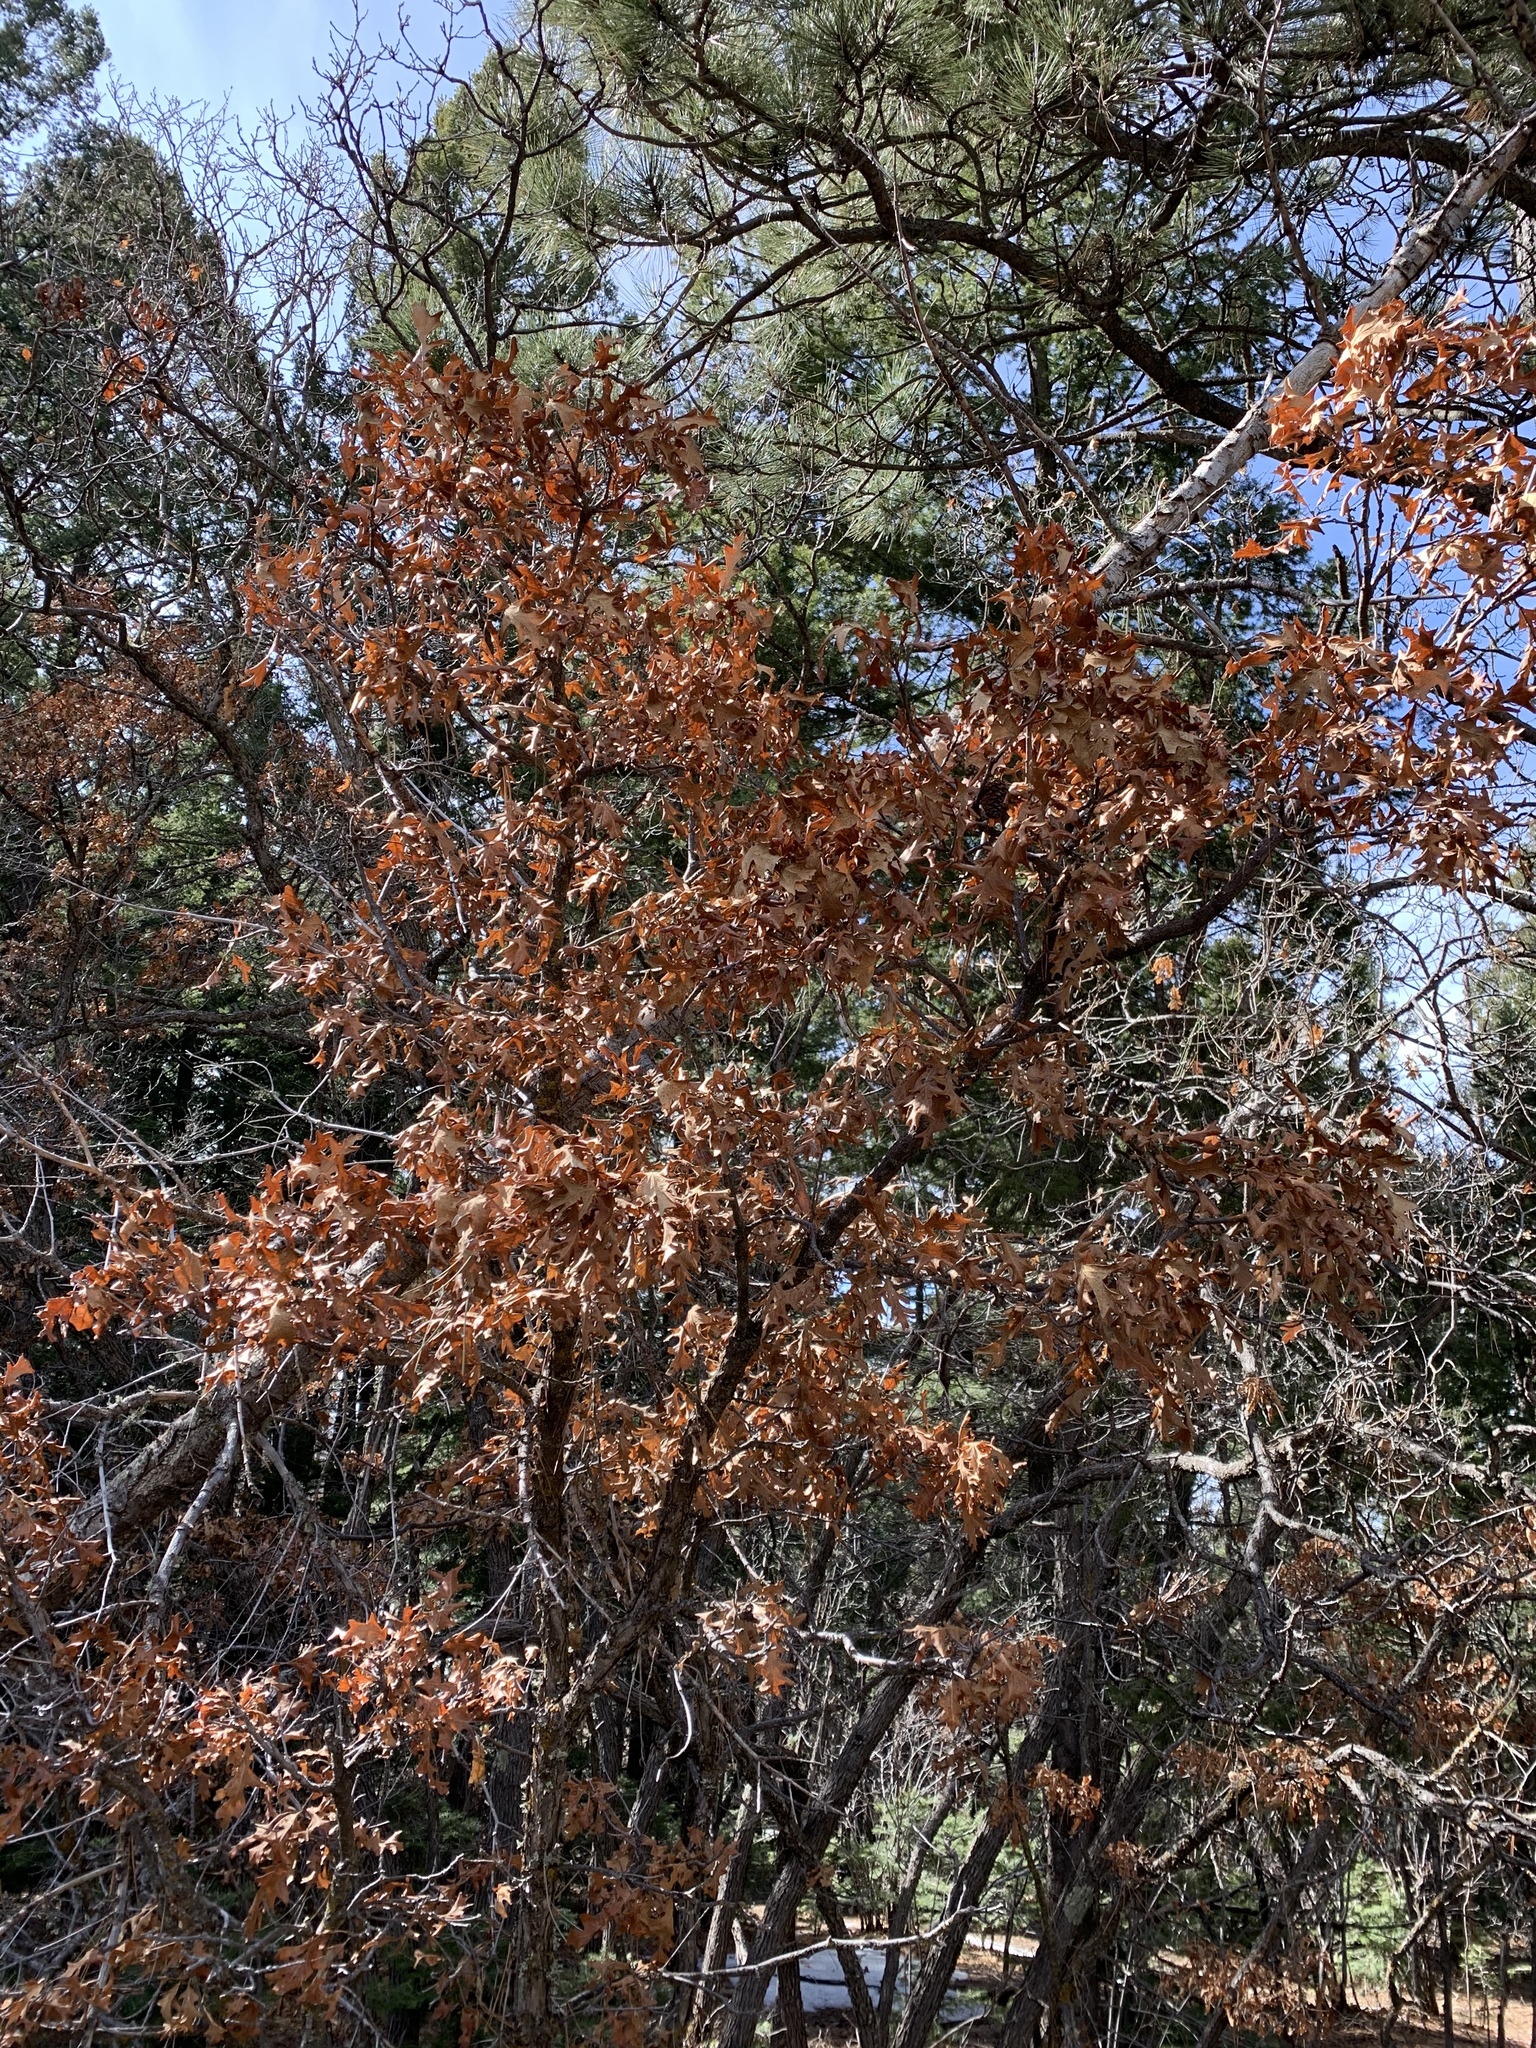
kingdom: Plantae
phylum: Tracheophyta
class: Magnoliopsida
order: Fagales
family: Fagaceae
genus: Quercus
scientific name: Quercus gambelii
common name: Gambel oak
